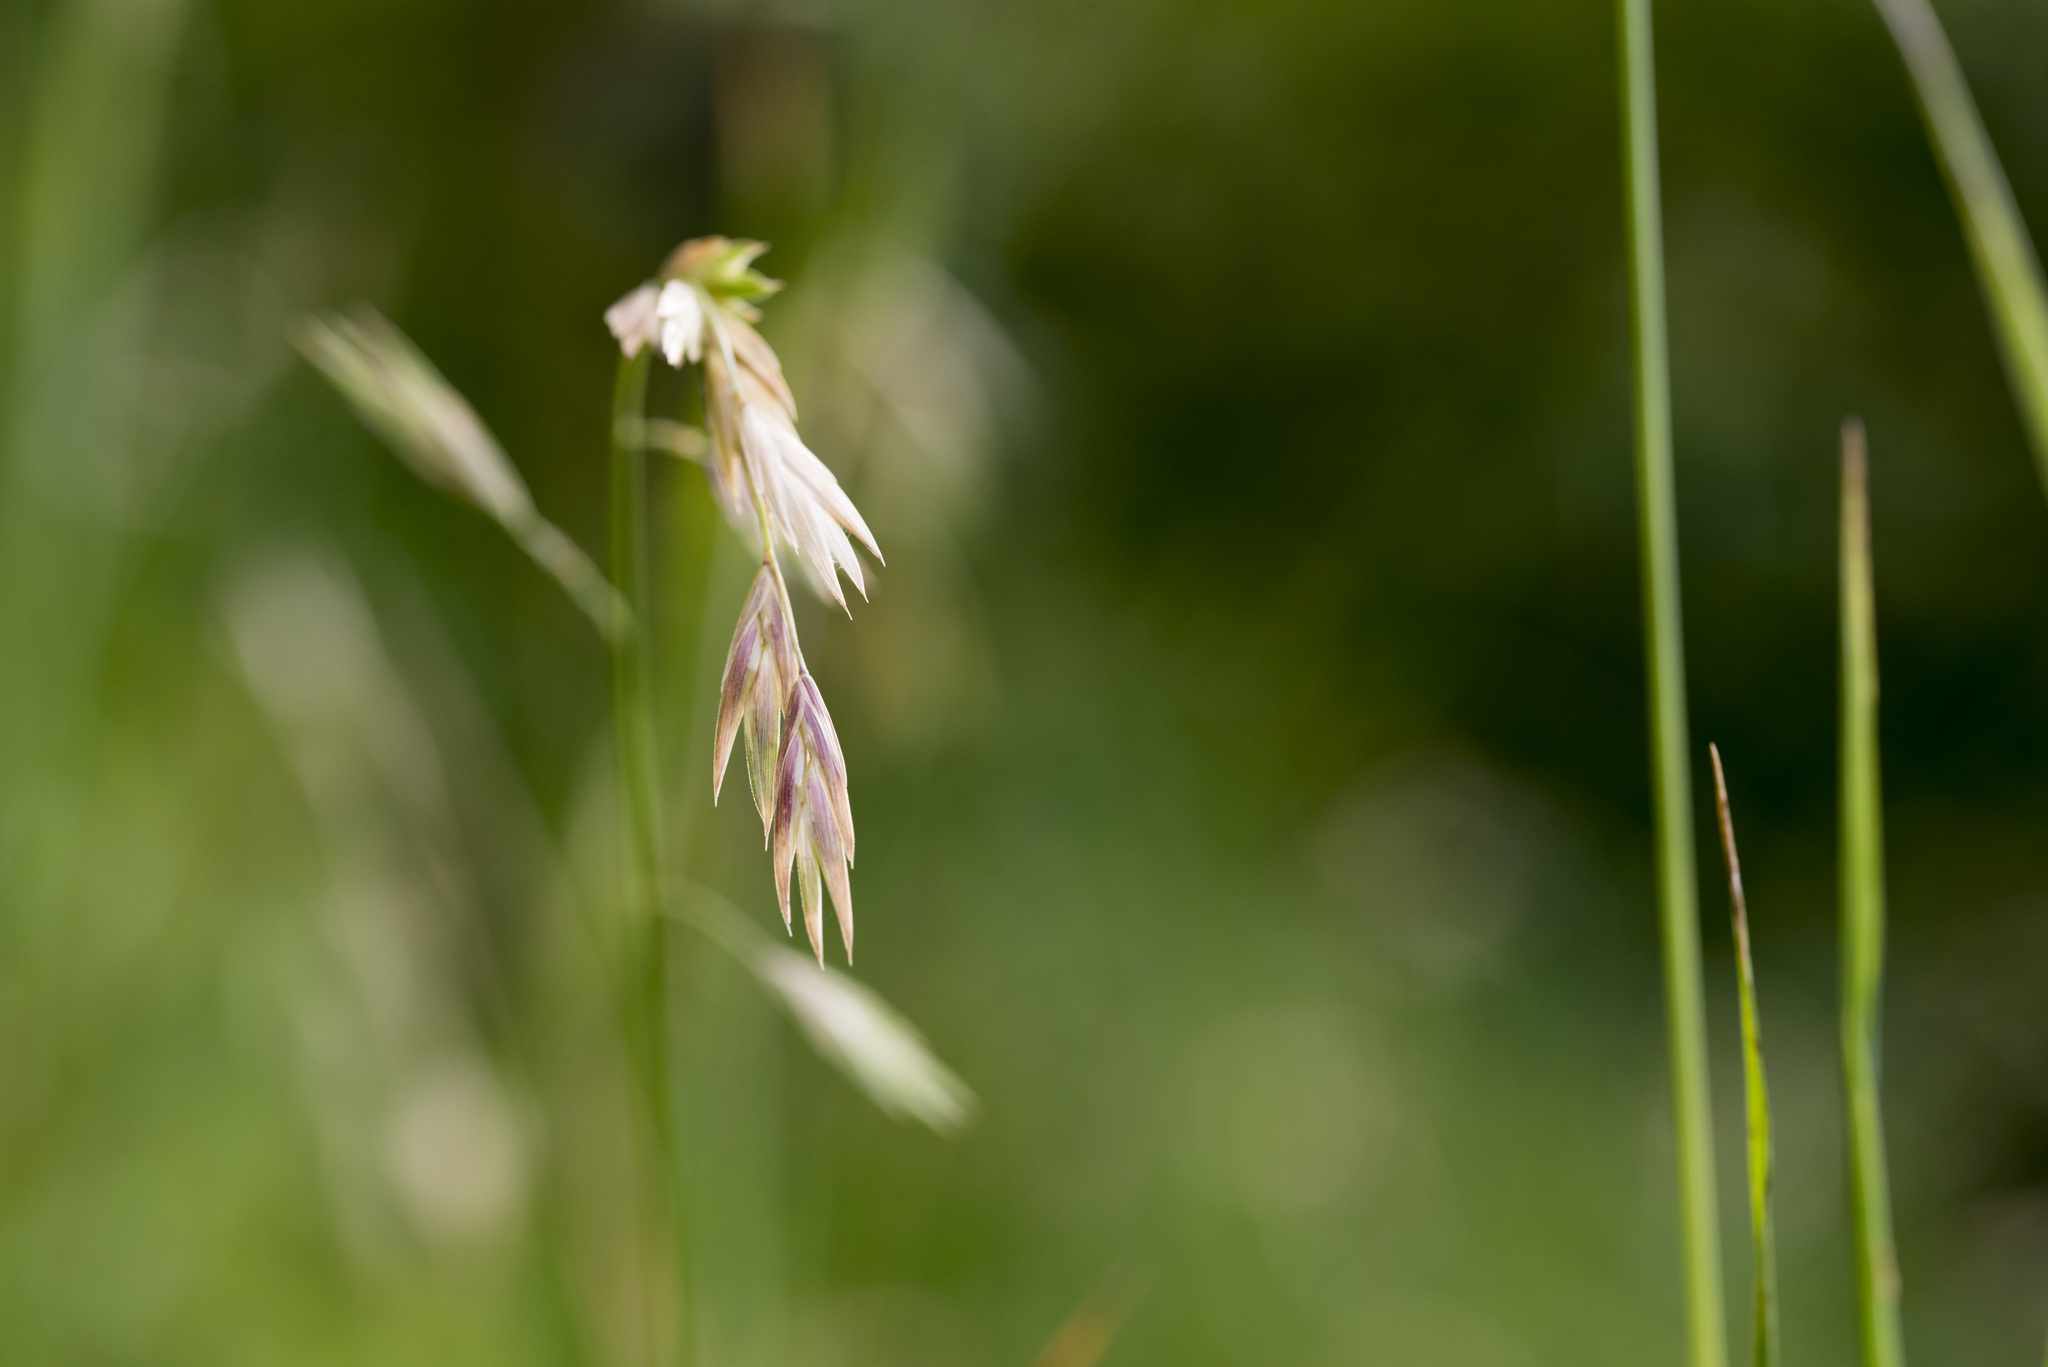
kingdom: Plantae
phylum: Tracheophyta
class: Liliopsida
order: Poales
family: Poaceae
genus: Bromus
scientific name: Bromus catharticus
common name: Rescuegrass
